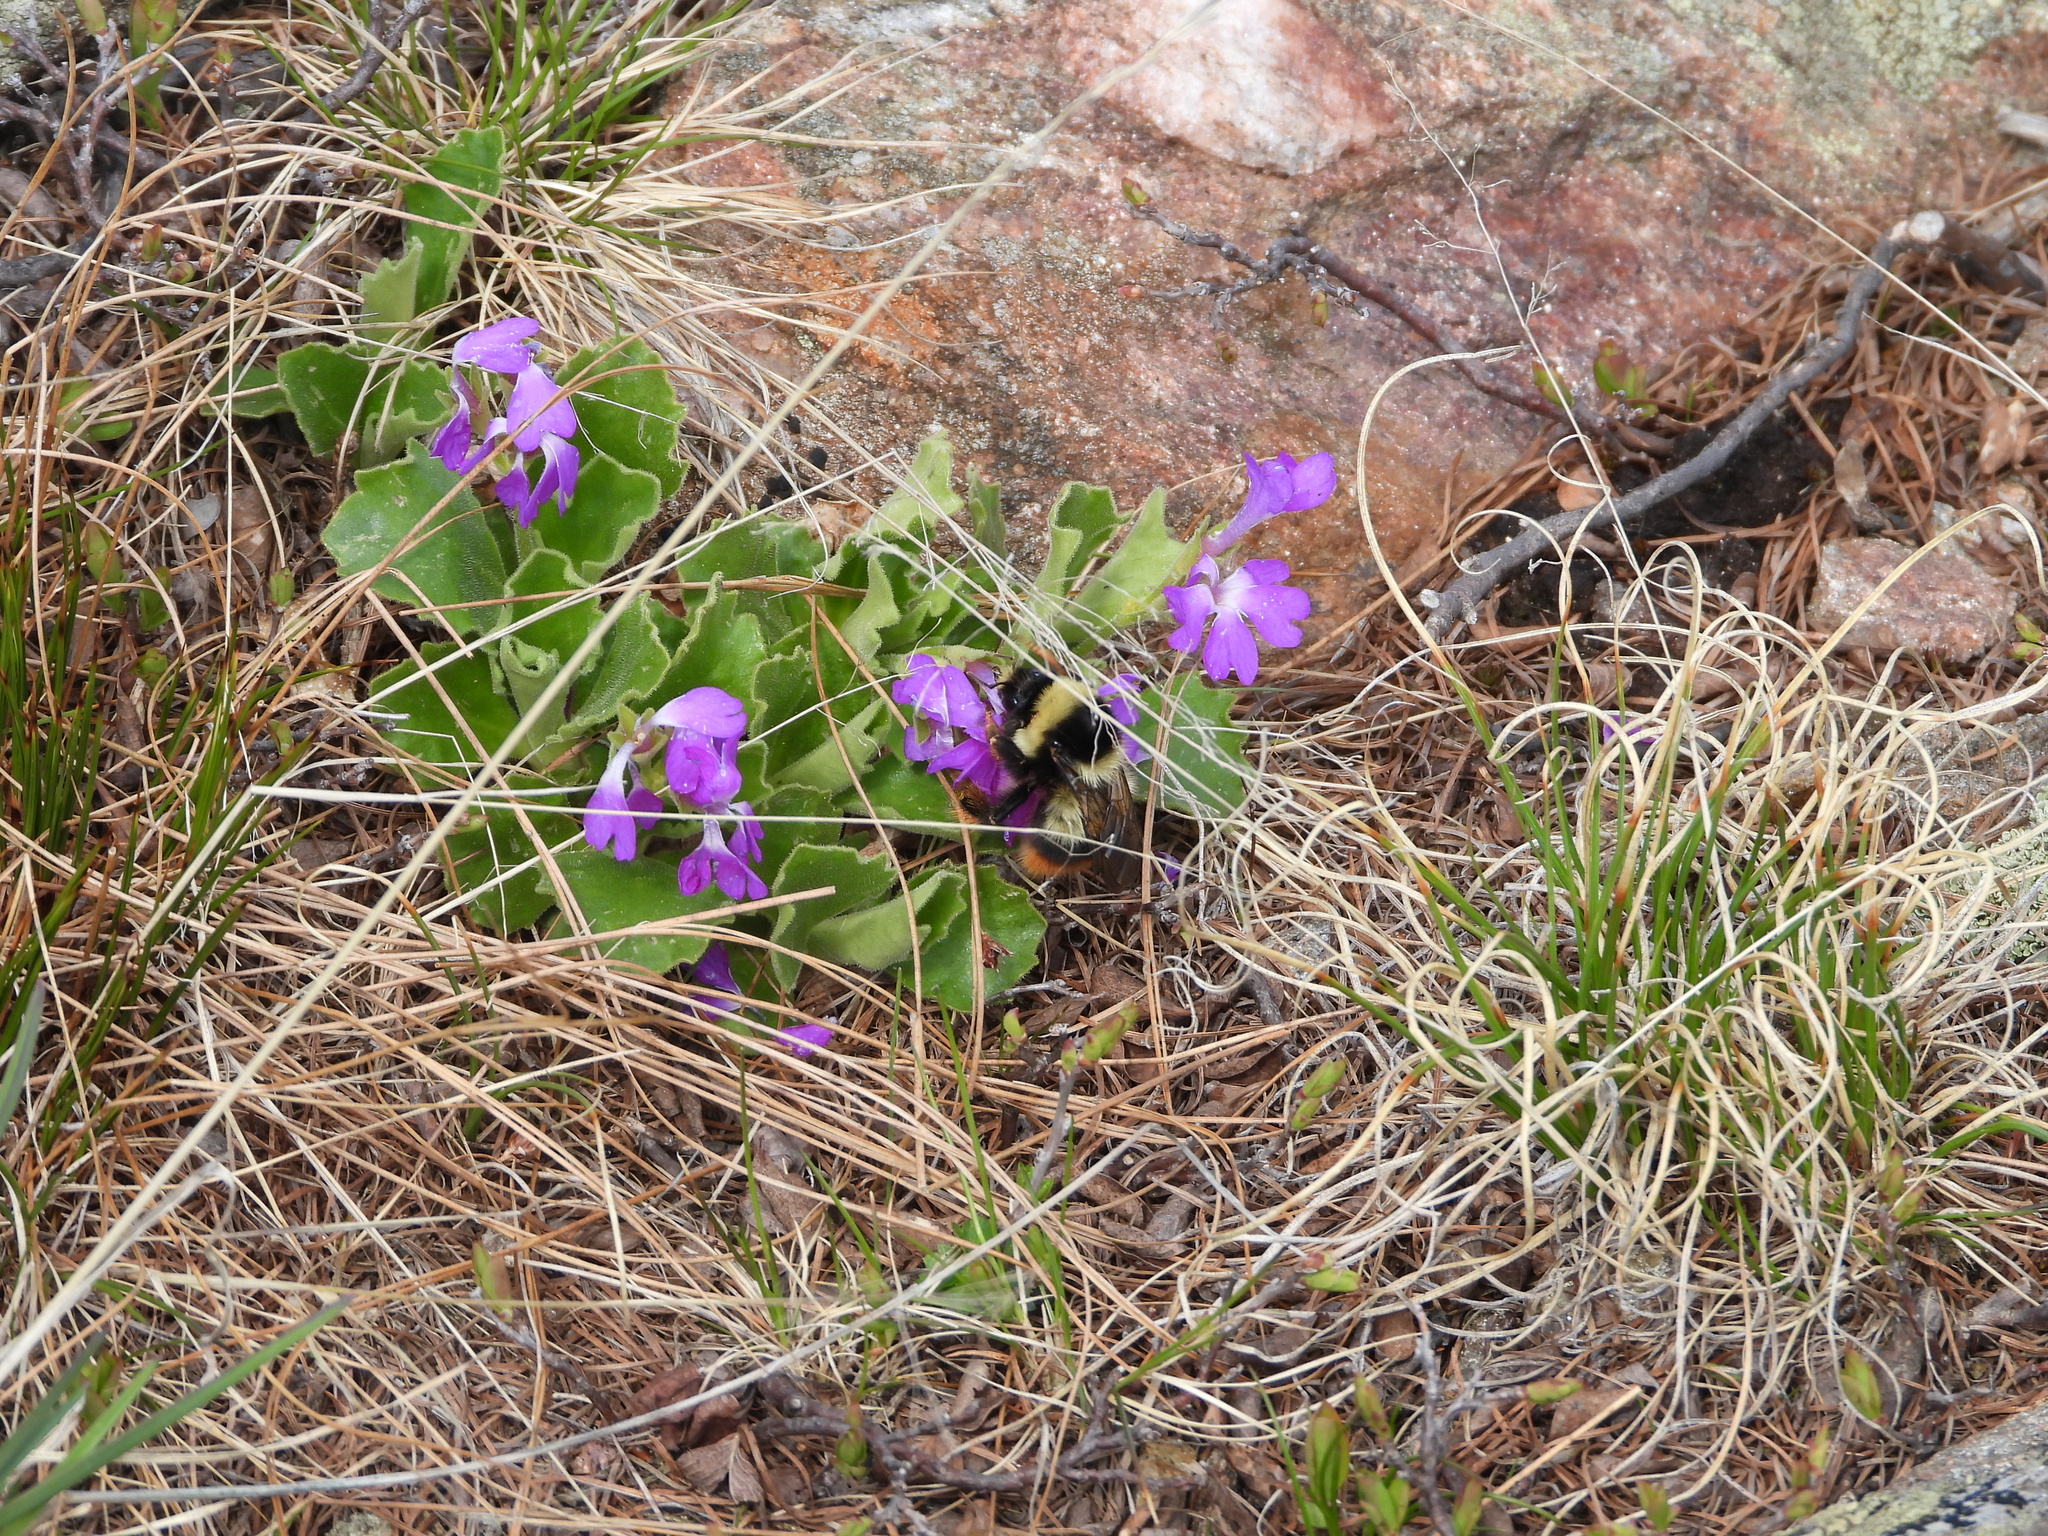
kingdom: Animalia
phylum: Arthropoda
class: Insecta
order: Hymenoptera
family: Apidae
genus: Bombus
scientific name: Bombus sichelii
